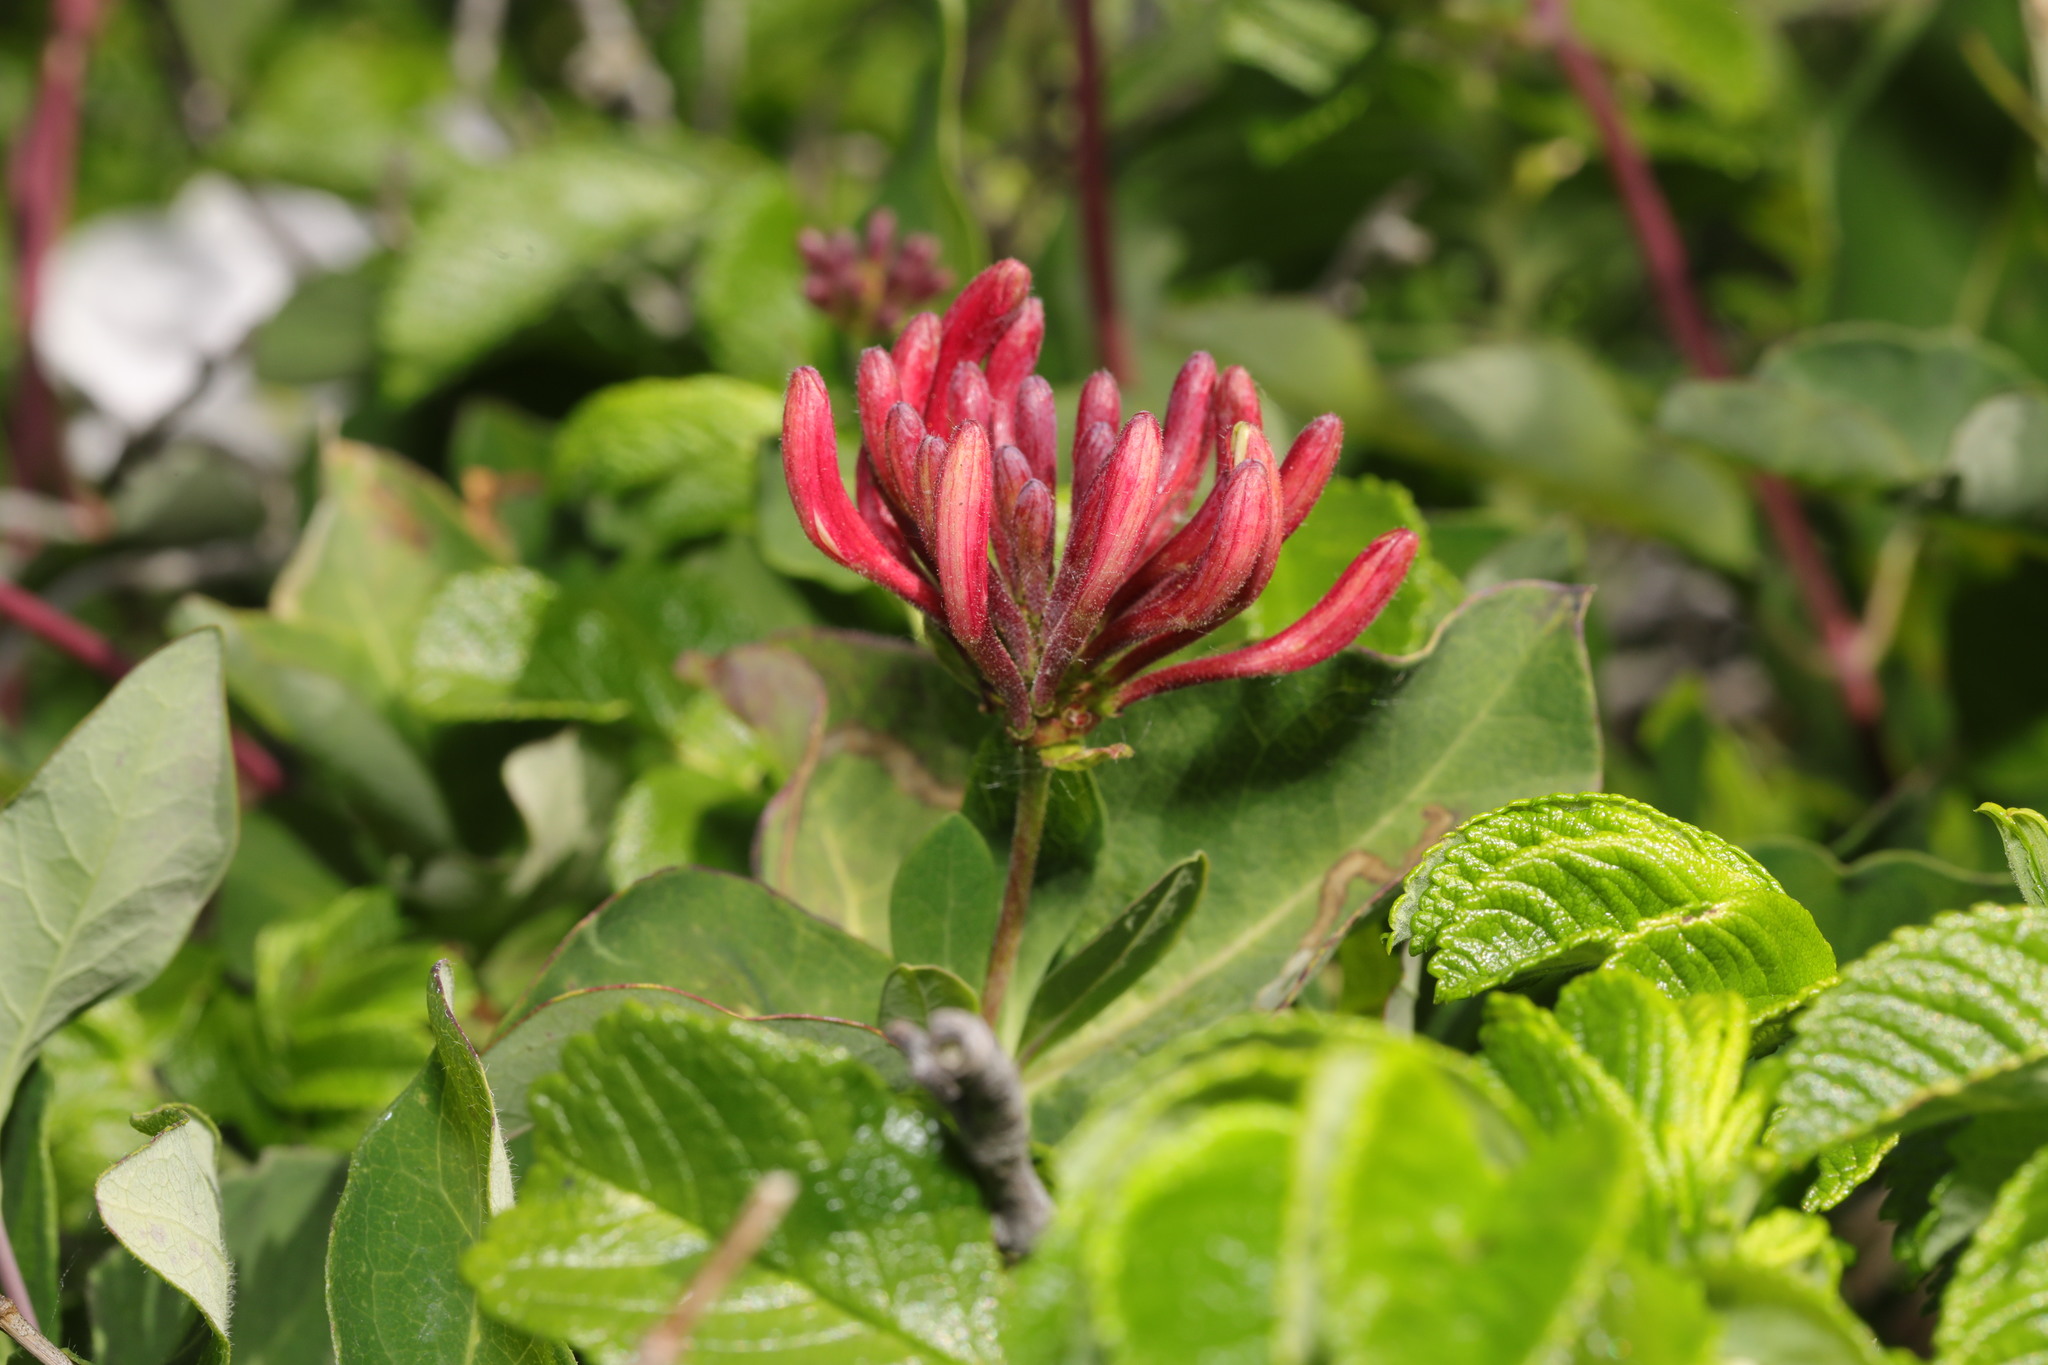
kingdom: Plantae
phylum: Tracheophyta
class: Magnoliopsida
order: Dipsacales
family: Caprifoliaceae
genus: Lonicera
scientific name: Lonicera periclymenum
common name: European honeysuckle
